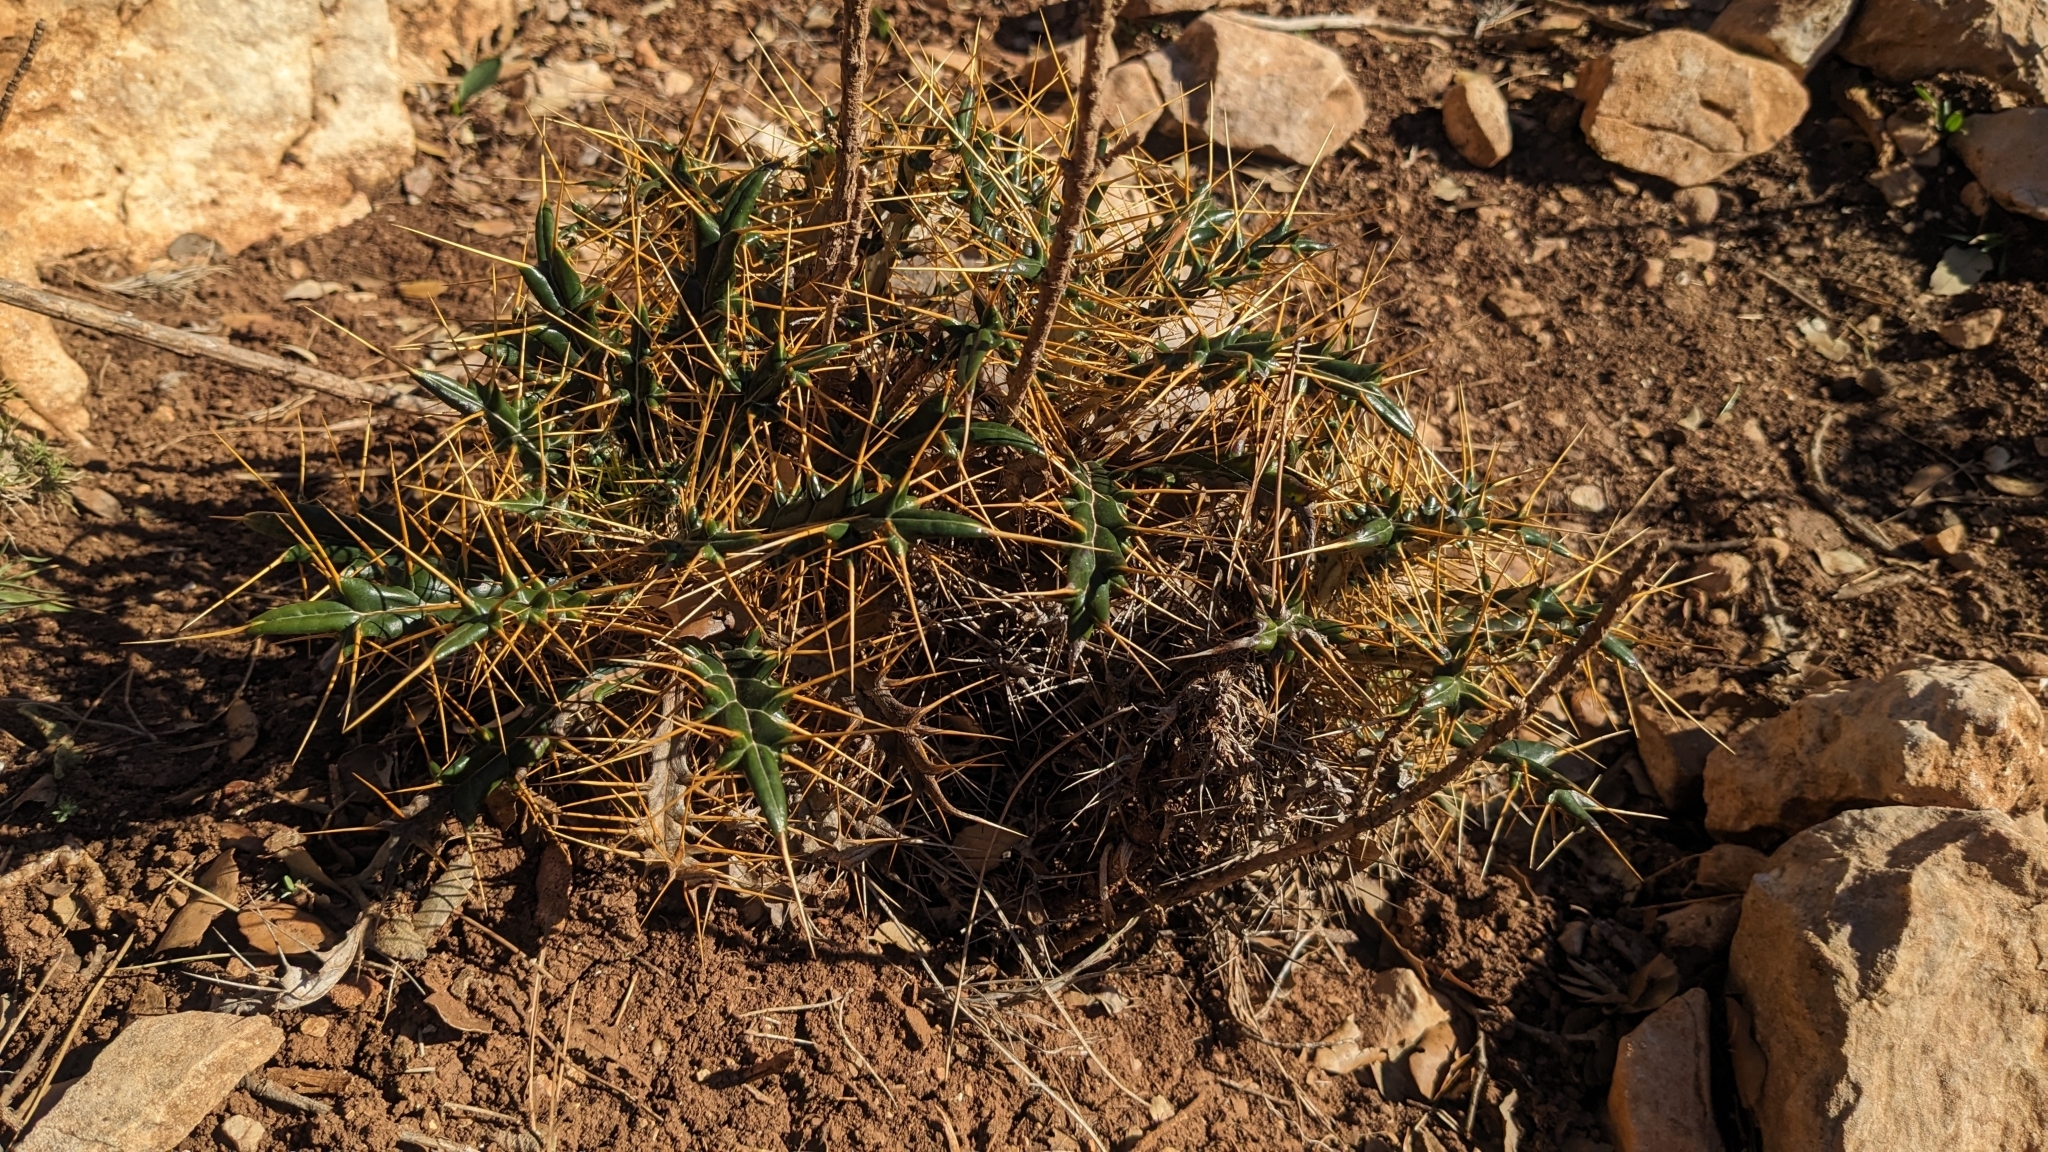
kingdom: Plantae
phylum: Tracheophyta
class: Magnoliopsida
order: Asterales
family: Asteraceae
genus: Ptilostemon
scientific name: Ptilostemon hispanicus
